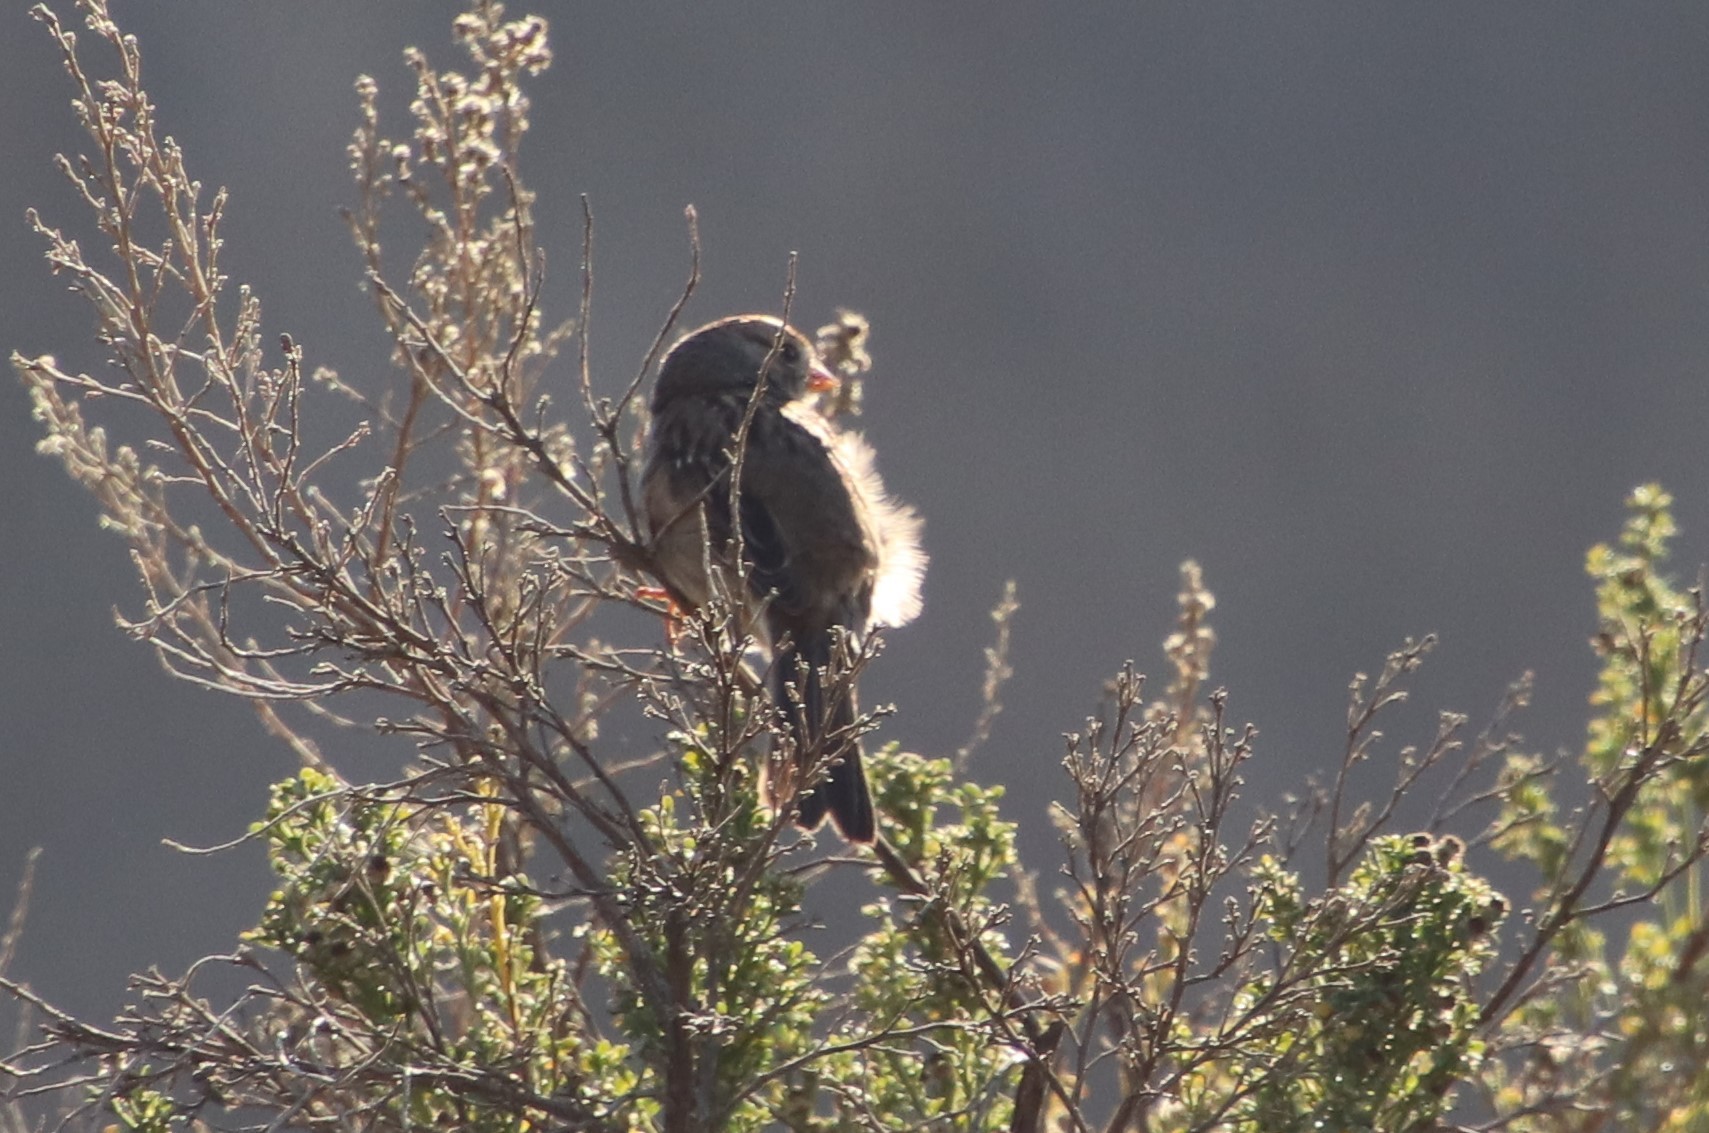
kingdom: Animalia
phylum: Chordata
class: Aves
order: Passeriformes
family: Passerellidae
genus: Zonotrichia
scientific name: Zonotrichia leucophrys
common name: White-crowned sparrow
